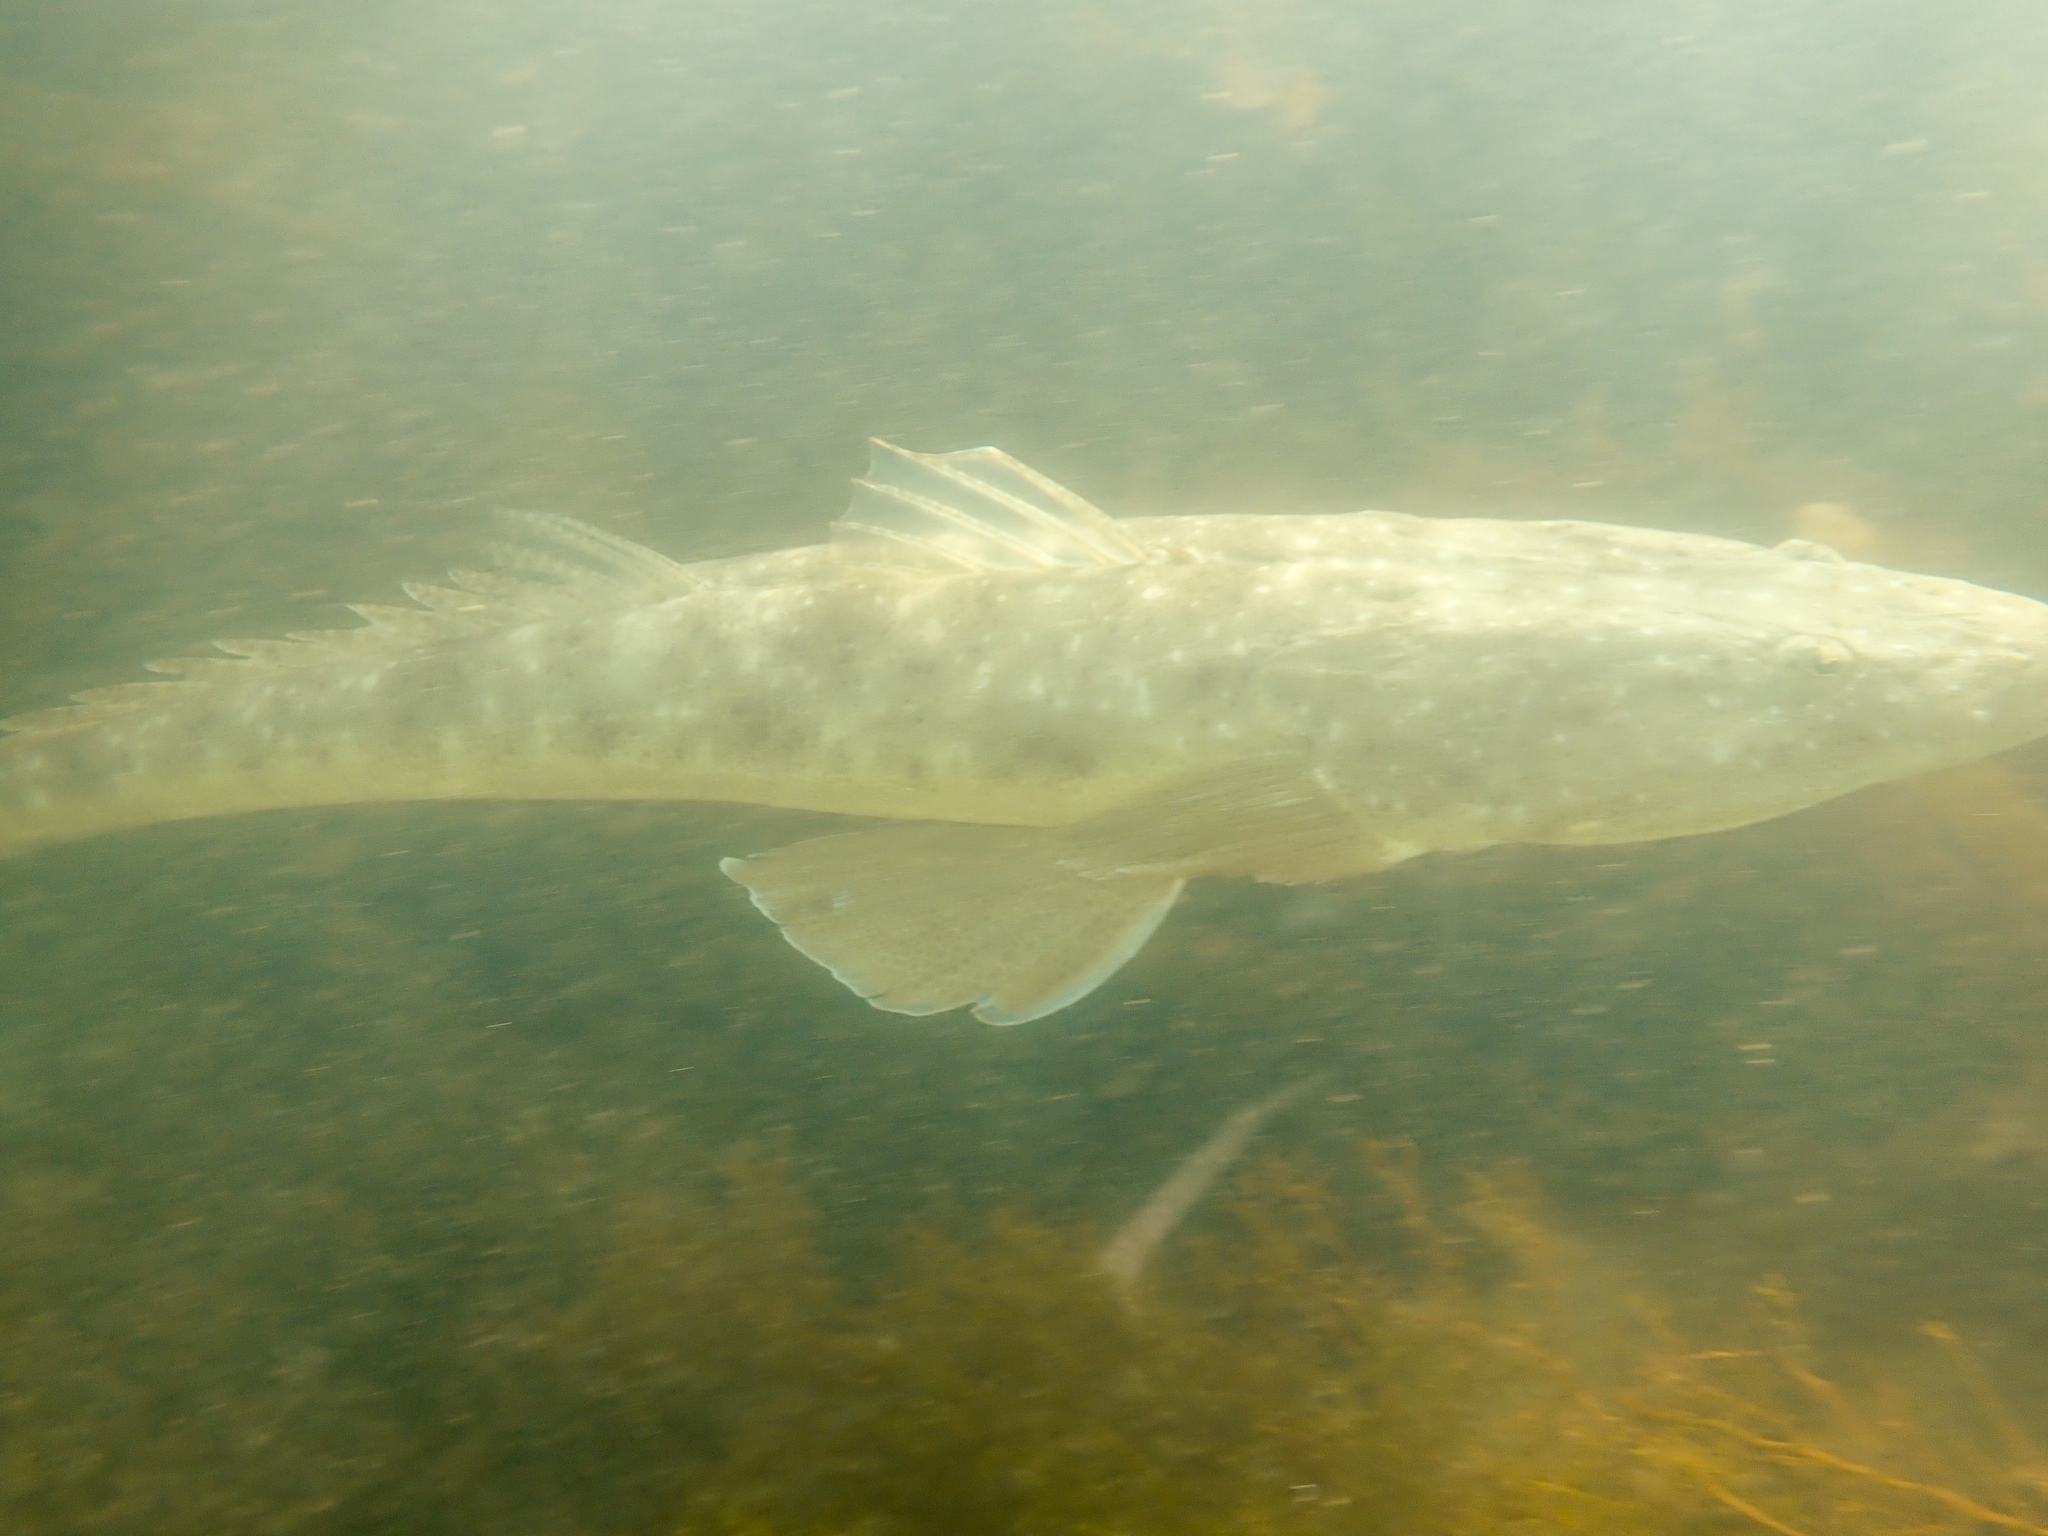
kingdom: Animalia
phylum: Chordata
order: Scorpaeniformes
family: Platycephalidae
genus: Platycephalus
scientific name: Platycephalus fuscus
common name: Dusky flathead
